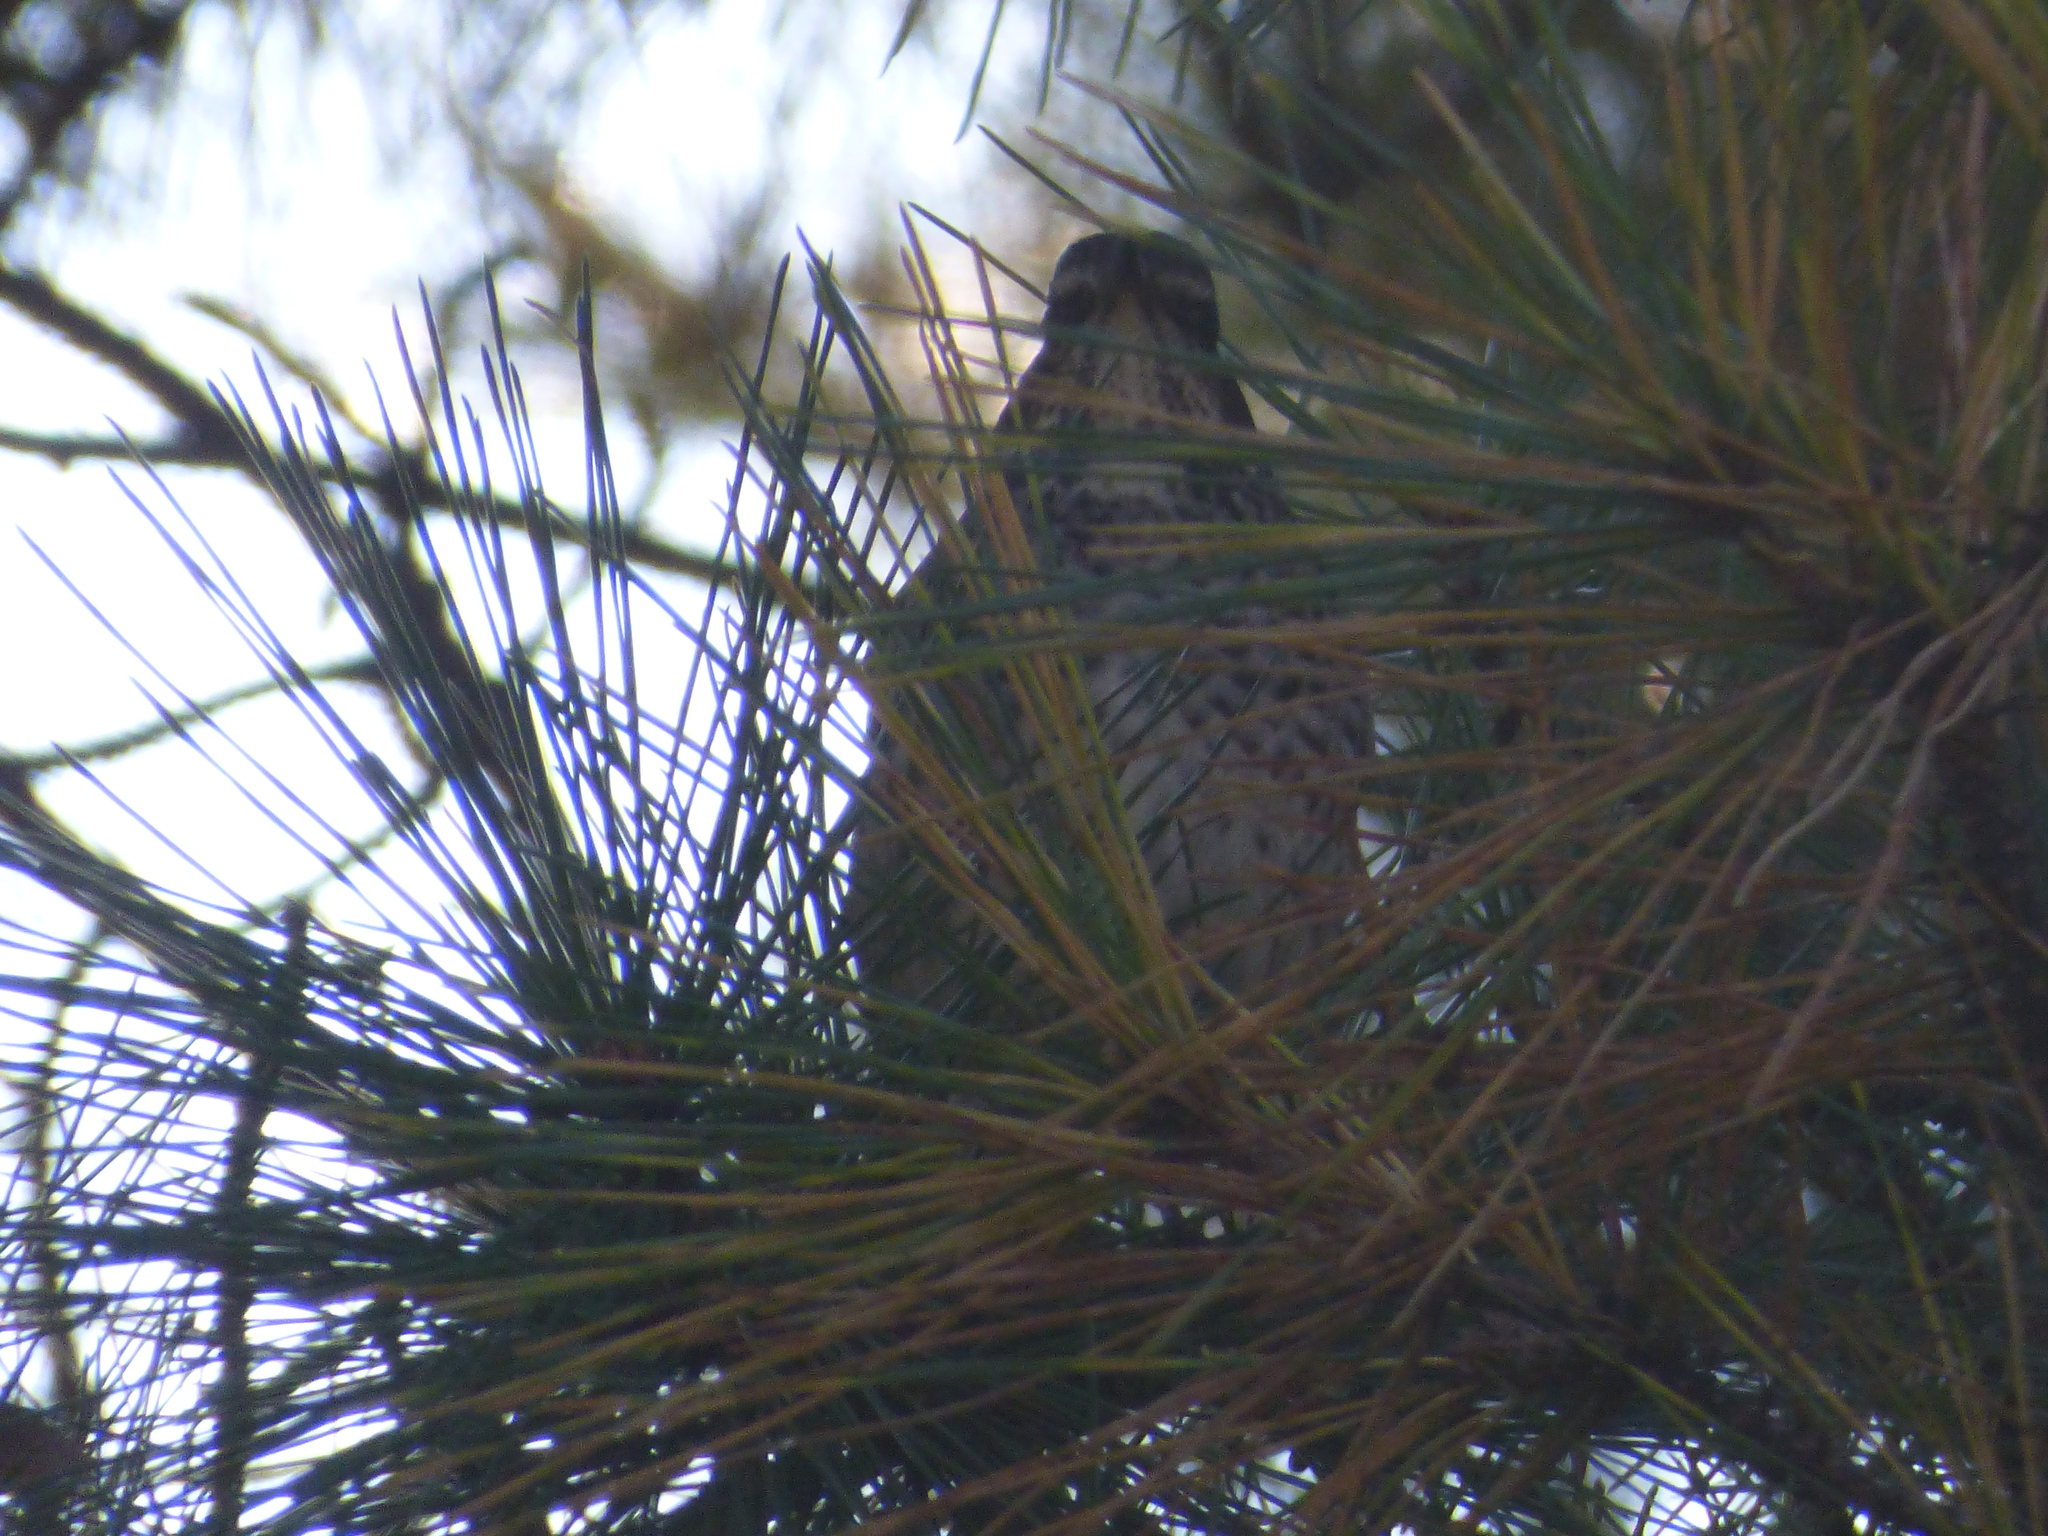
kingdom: Animalia
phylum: Chordata
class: Aves
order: Passeriformes
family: Turdidae
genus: Turdus
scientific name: Turdus eunomus
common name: Dusky thrush
